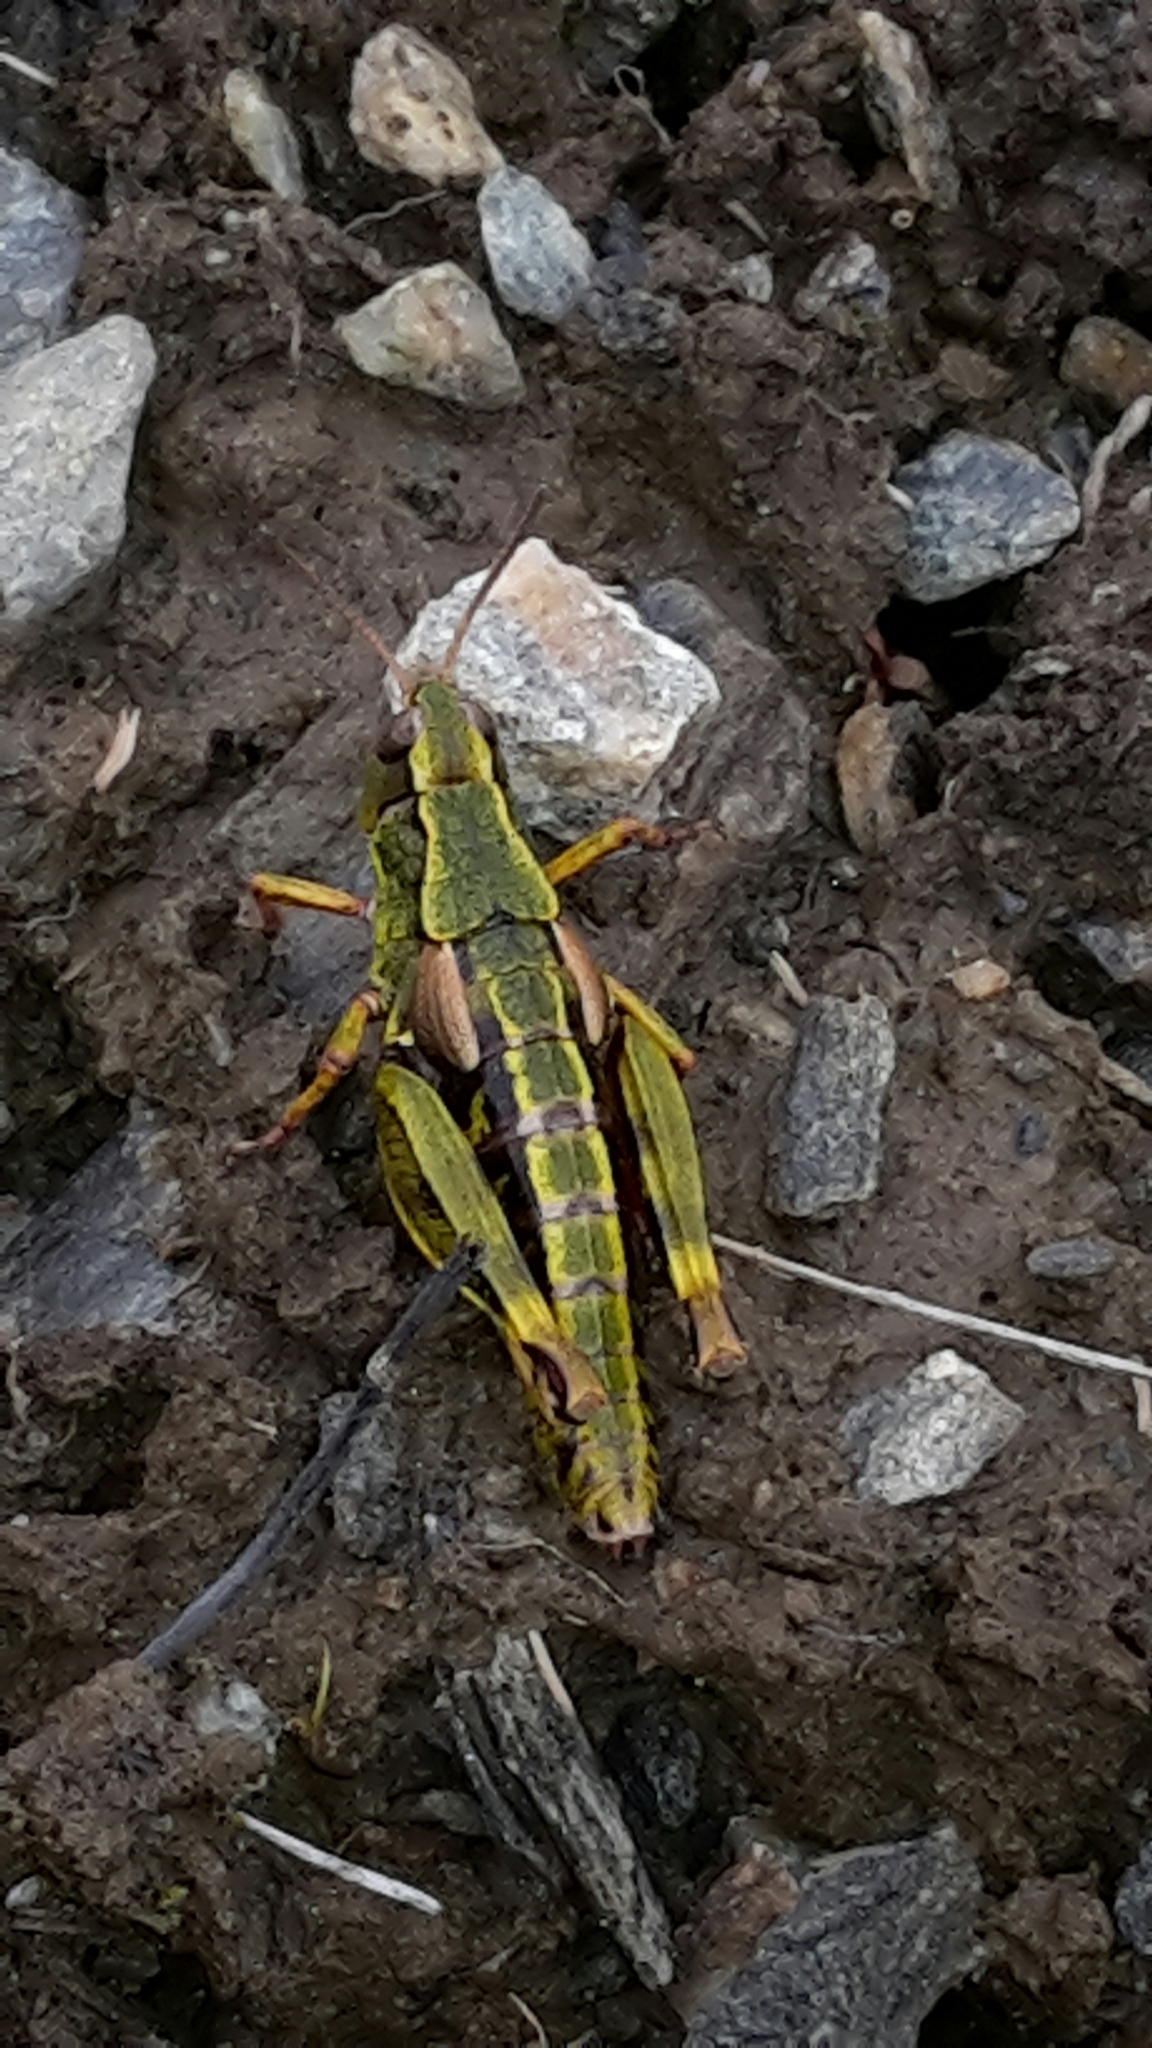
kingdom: Animalia
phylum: Arthropoda
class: Insecta
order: Orthoptera
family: Acrididae
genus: Sigaus
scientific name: Sigaus australis
